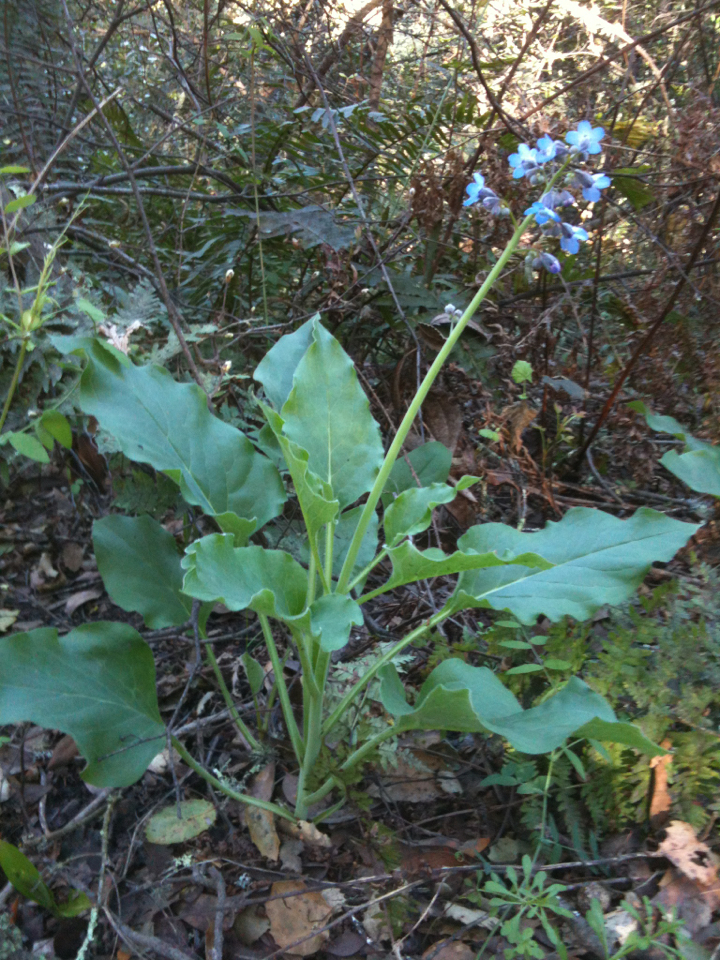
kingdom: Plantae
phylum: Tracheophyta
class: Magnoliopsida
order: Boraginales
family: Boraginaceae
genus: Adelinia
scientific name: Adelinia grande
